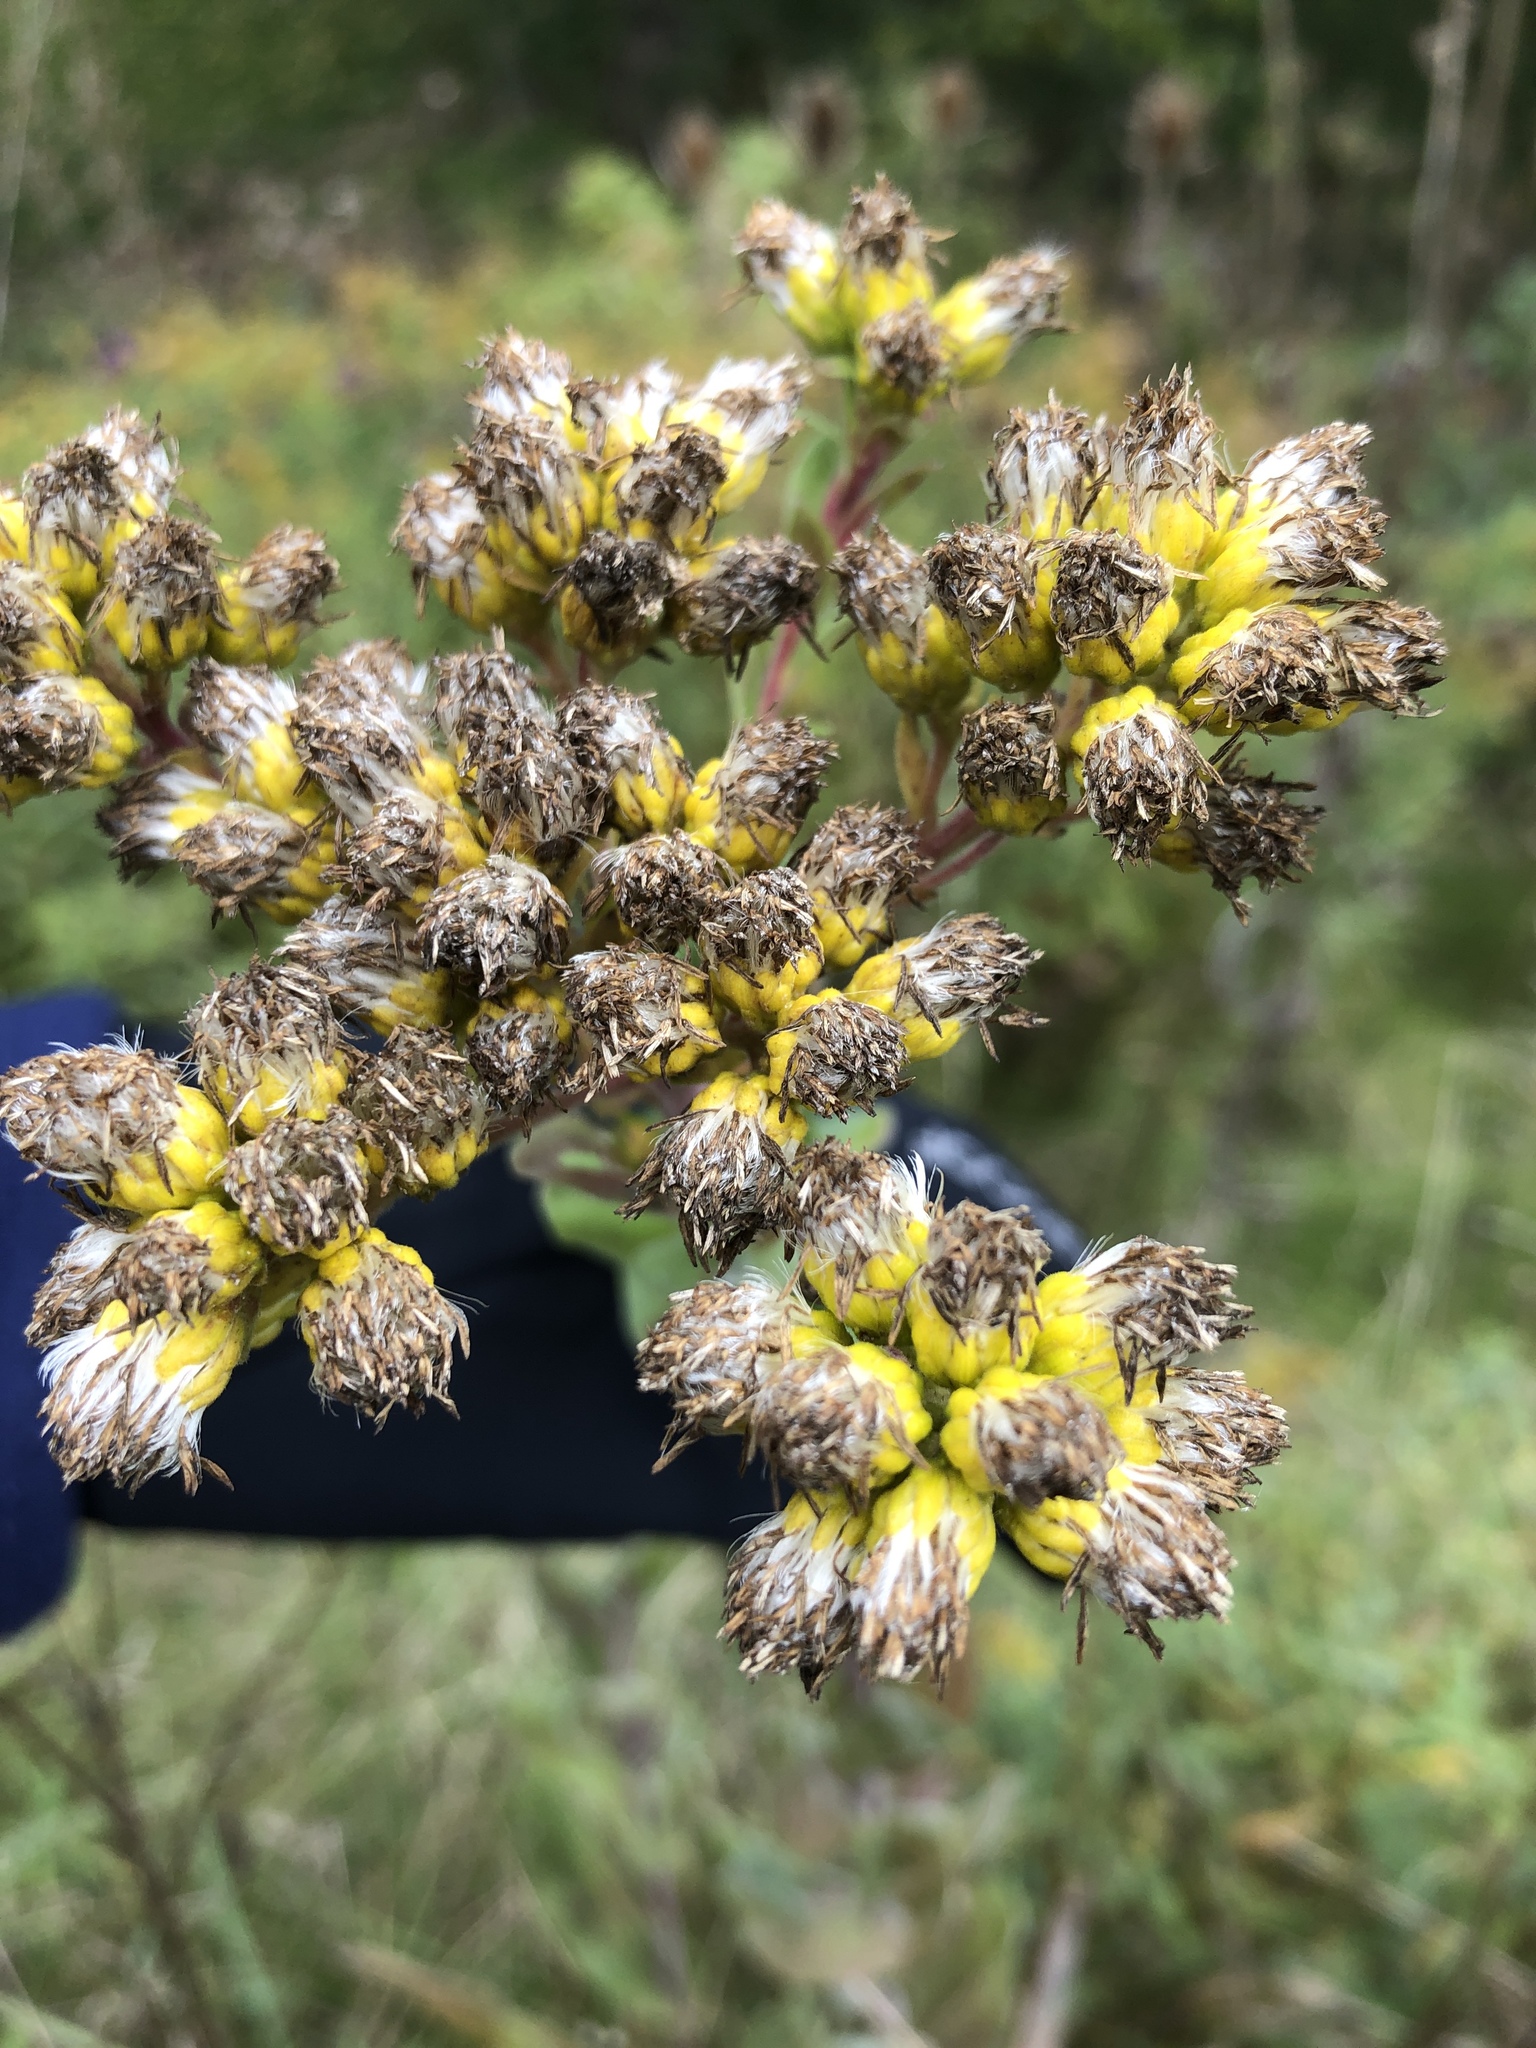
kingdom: Plantae
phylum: Tracheophyta
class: Magnoliopsida
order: Asterales
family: Asteraceae
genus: Solidago
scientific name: Solidago rigida
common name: Rigid goldenrod
